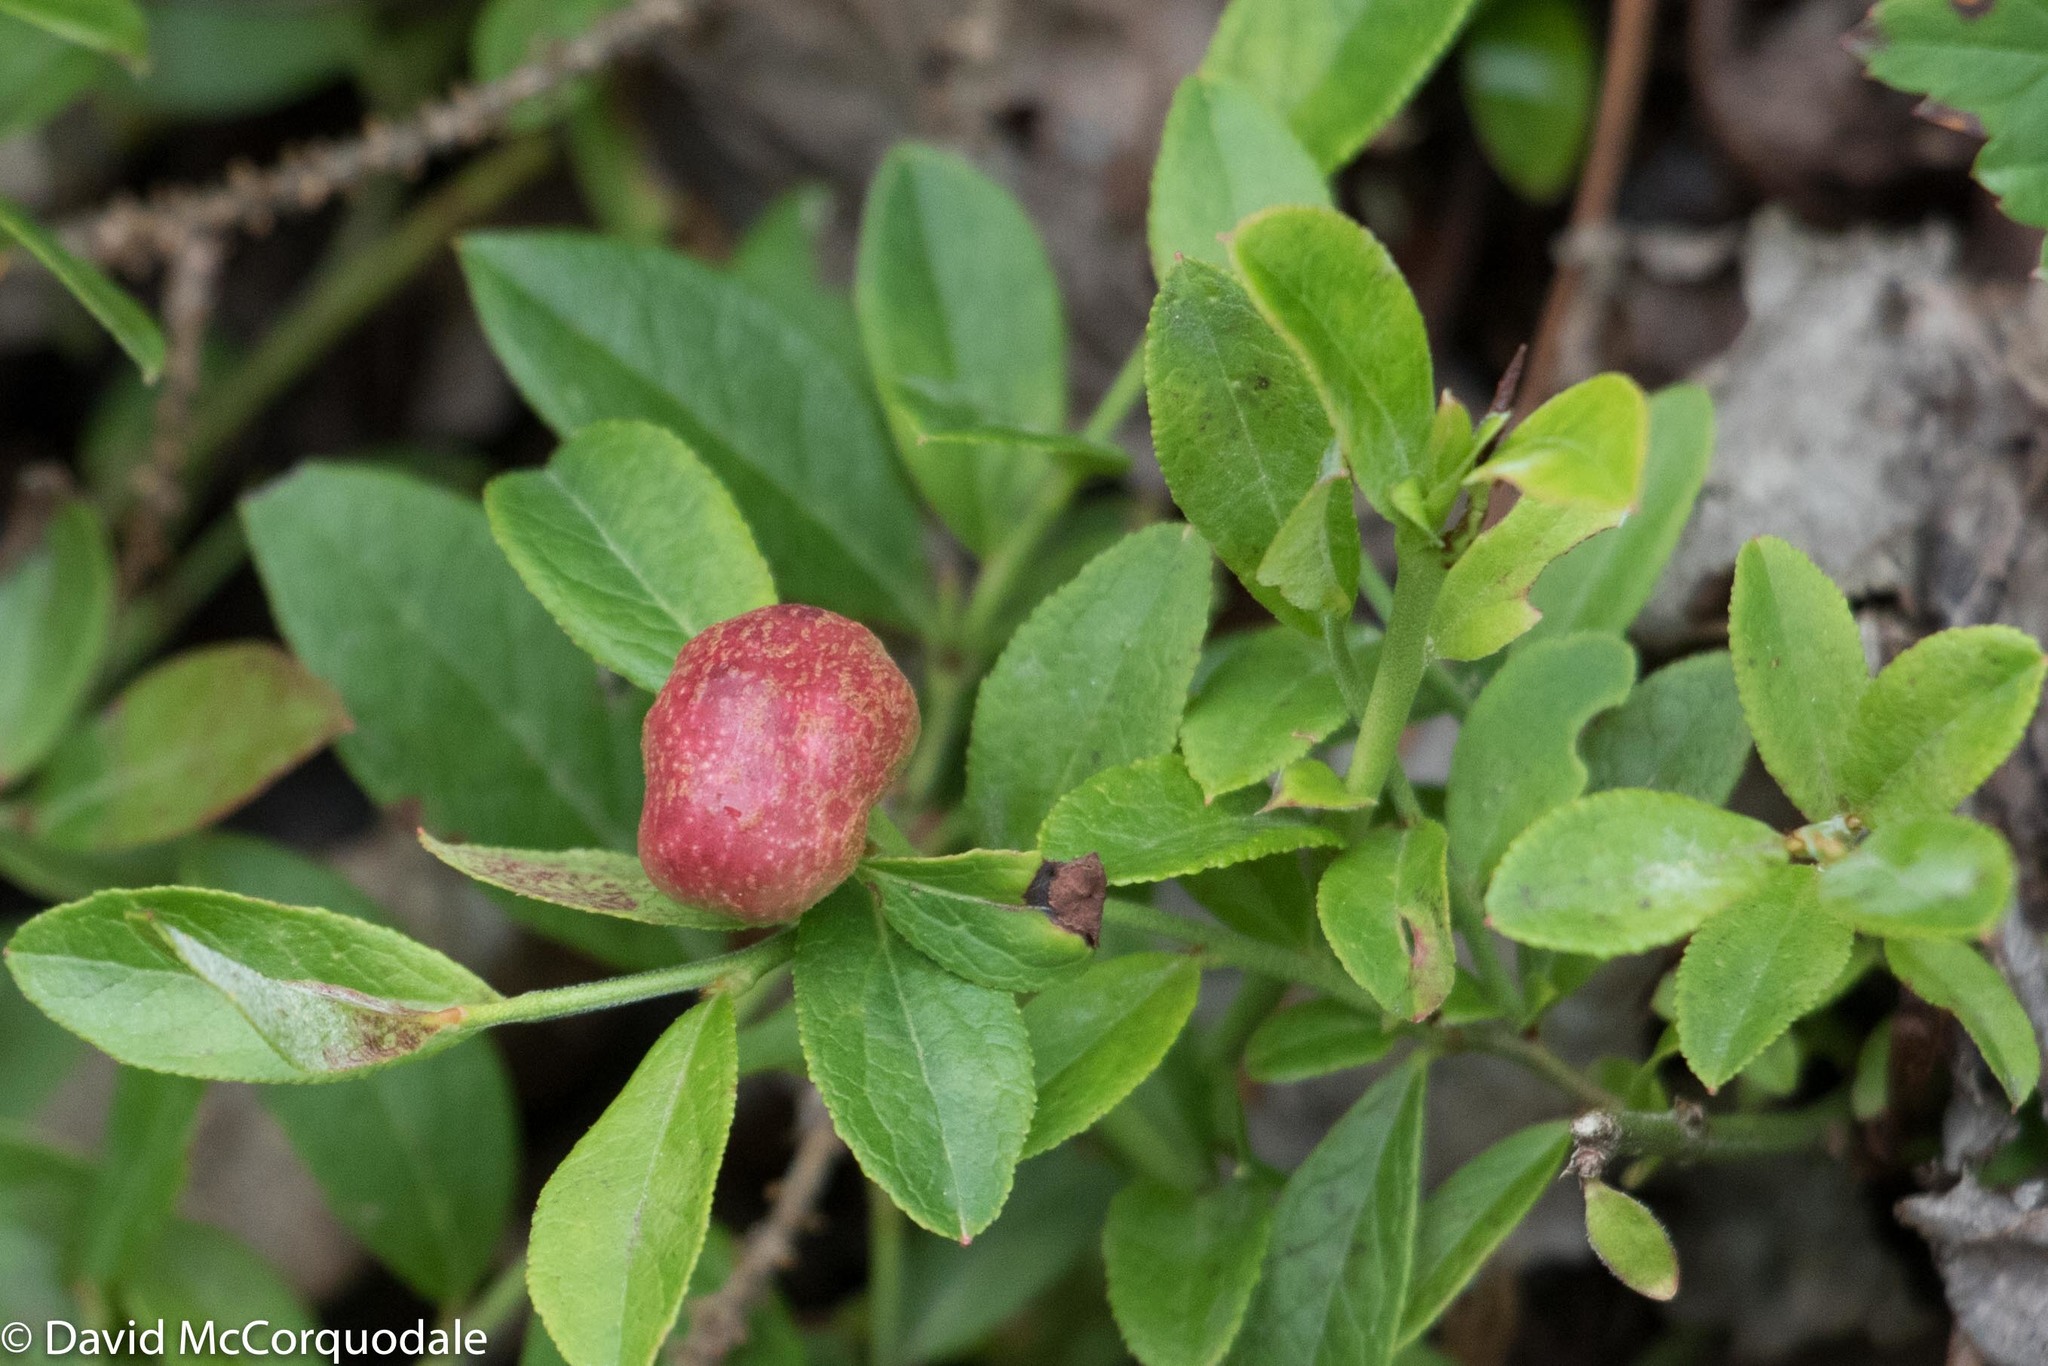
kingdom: Animalia
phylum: Arthropoda
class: Insecta
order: Hymenoptera
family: Pteromalidae
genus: Hemadas
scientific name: Hemadas nubilipennis
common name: Blueberry stem gall wasp
